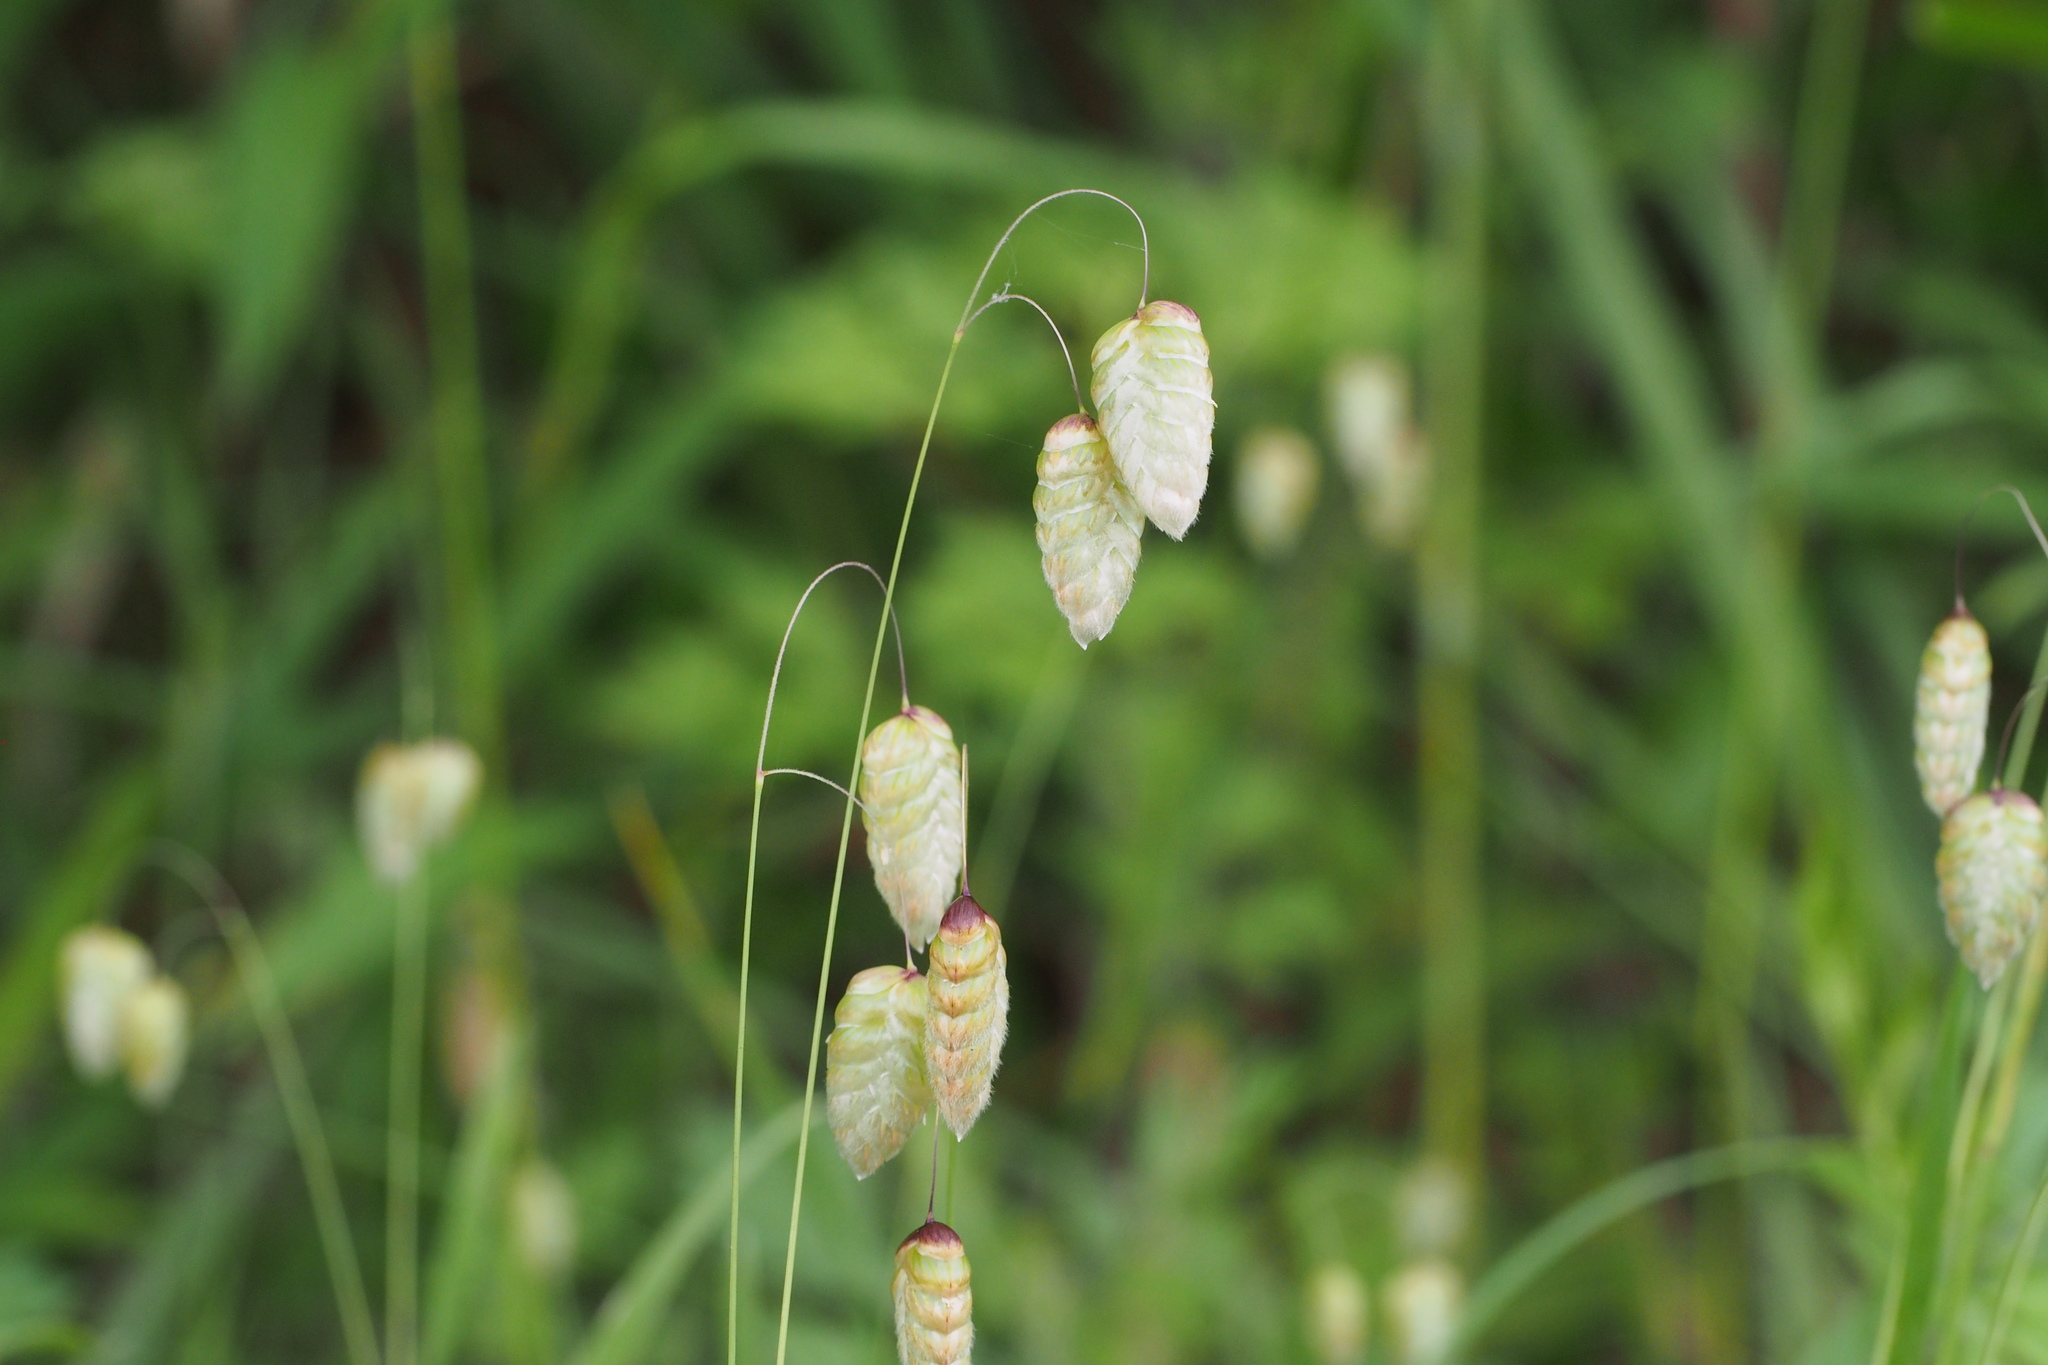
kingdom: Plantae
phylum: Tracheophyta
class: Liliopsida
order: Poales
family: Poaceae
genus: Briza
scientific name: Briza maxima
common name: Big quakinggrass
